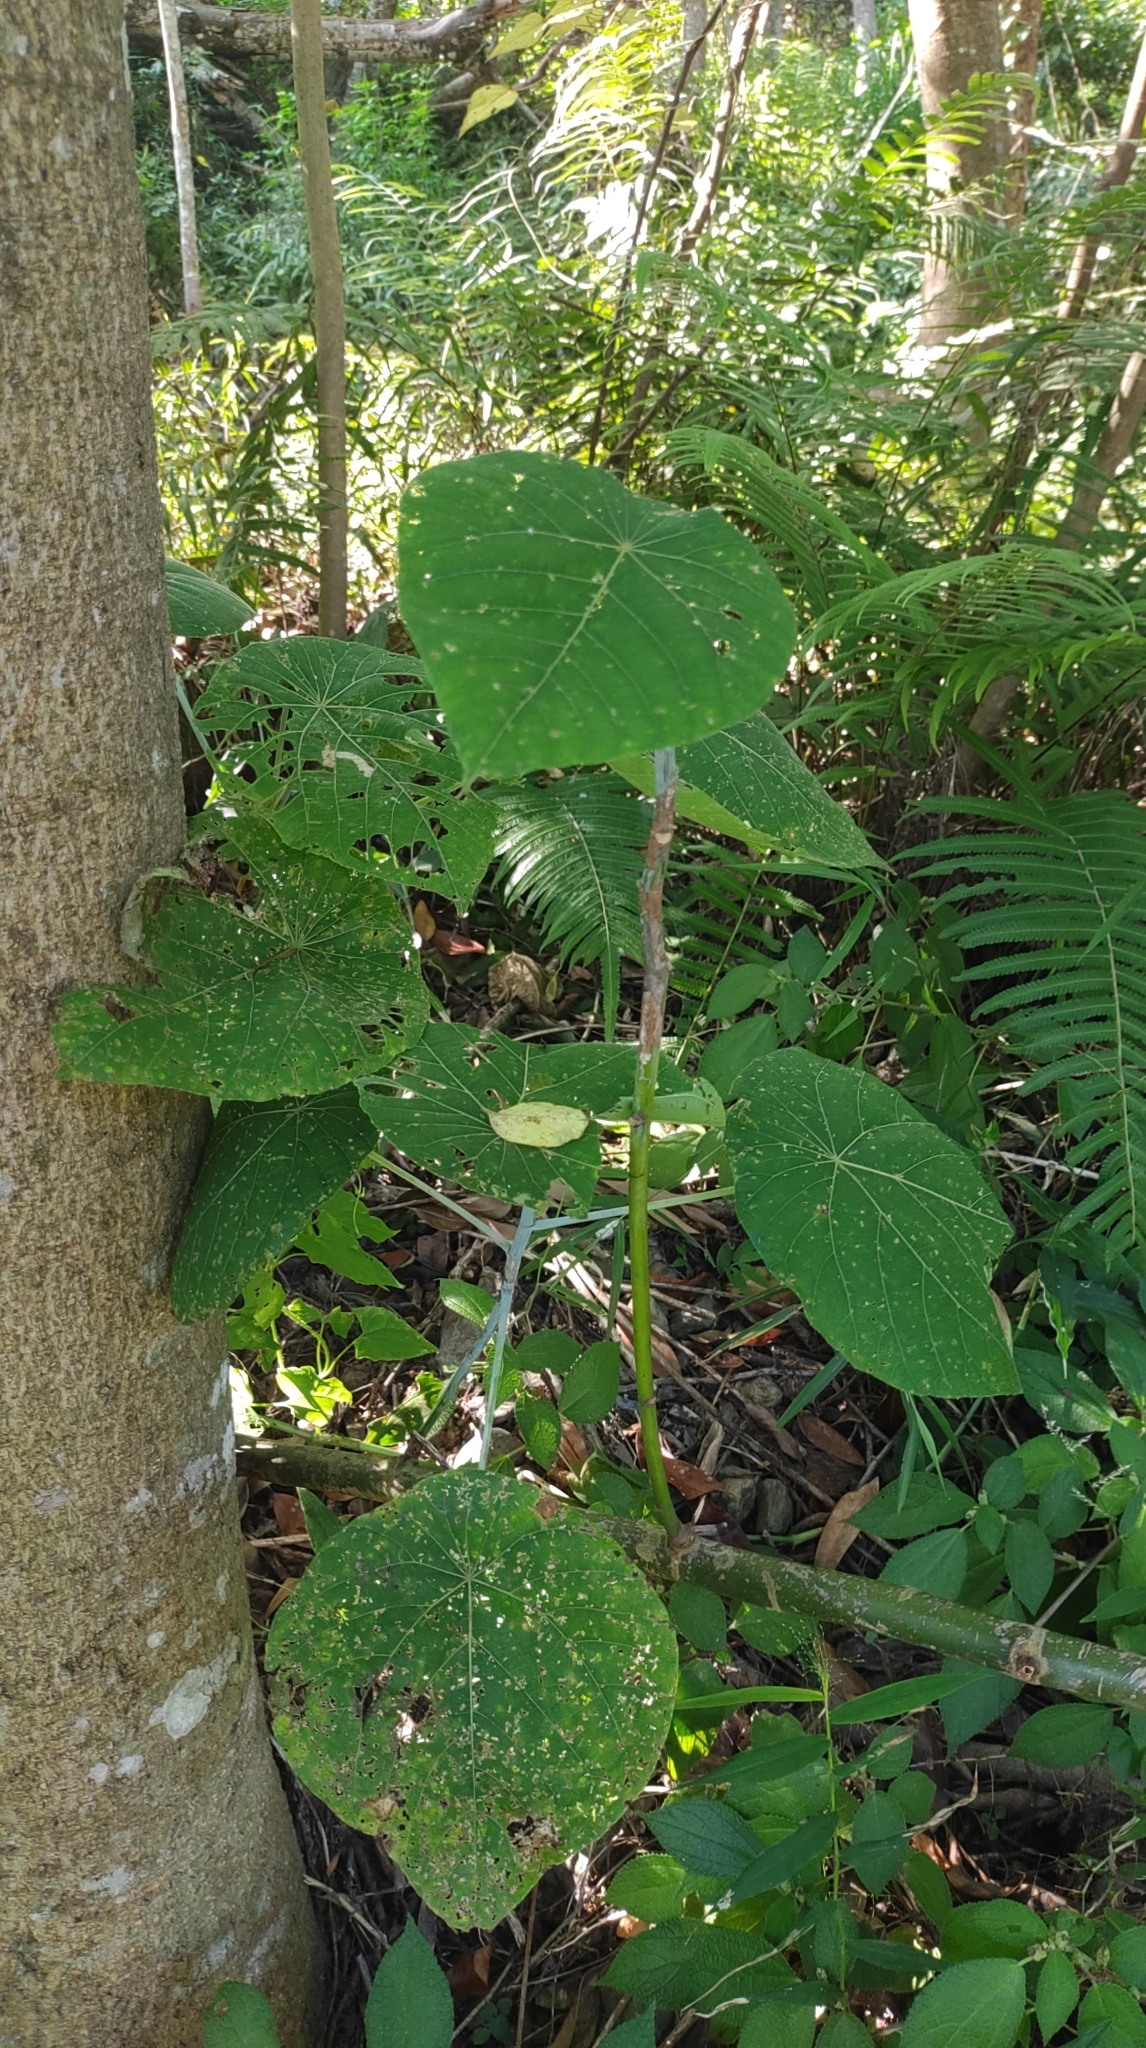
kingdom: Plantae
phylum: Tracheophyta
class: Magnoliopsida
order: Malpighiales
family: Euphorbiaceae
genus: Macaranga
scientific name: Macaranga tanarius
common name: Parasol leaf tree
